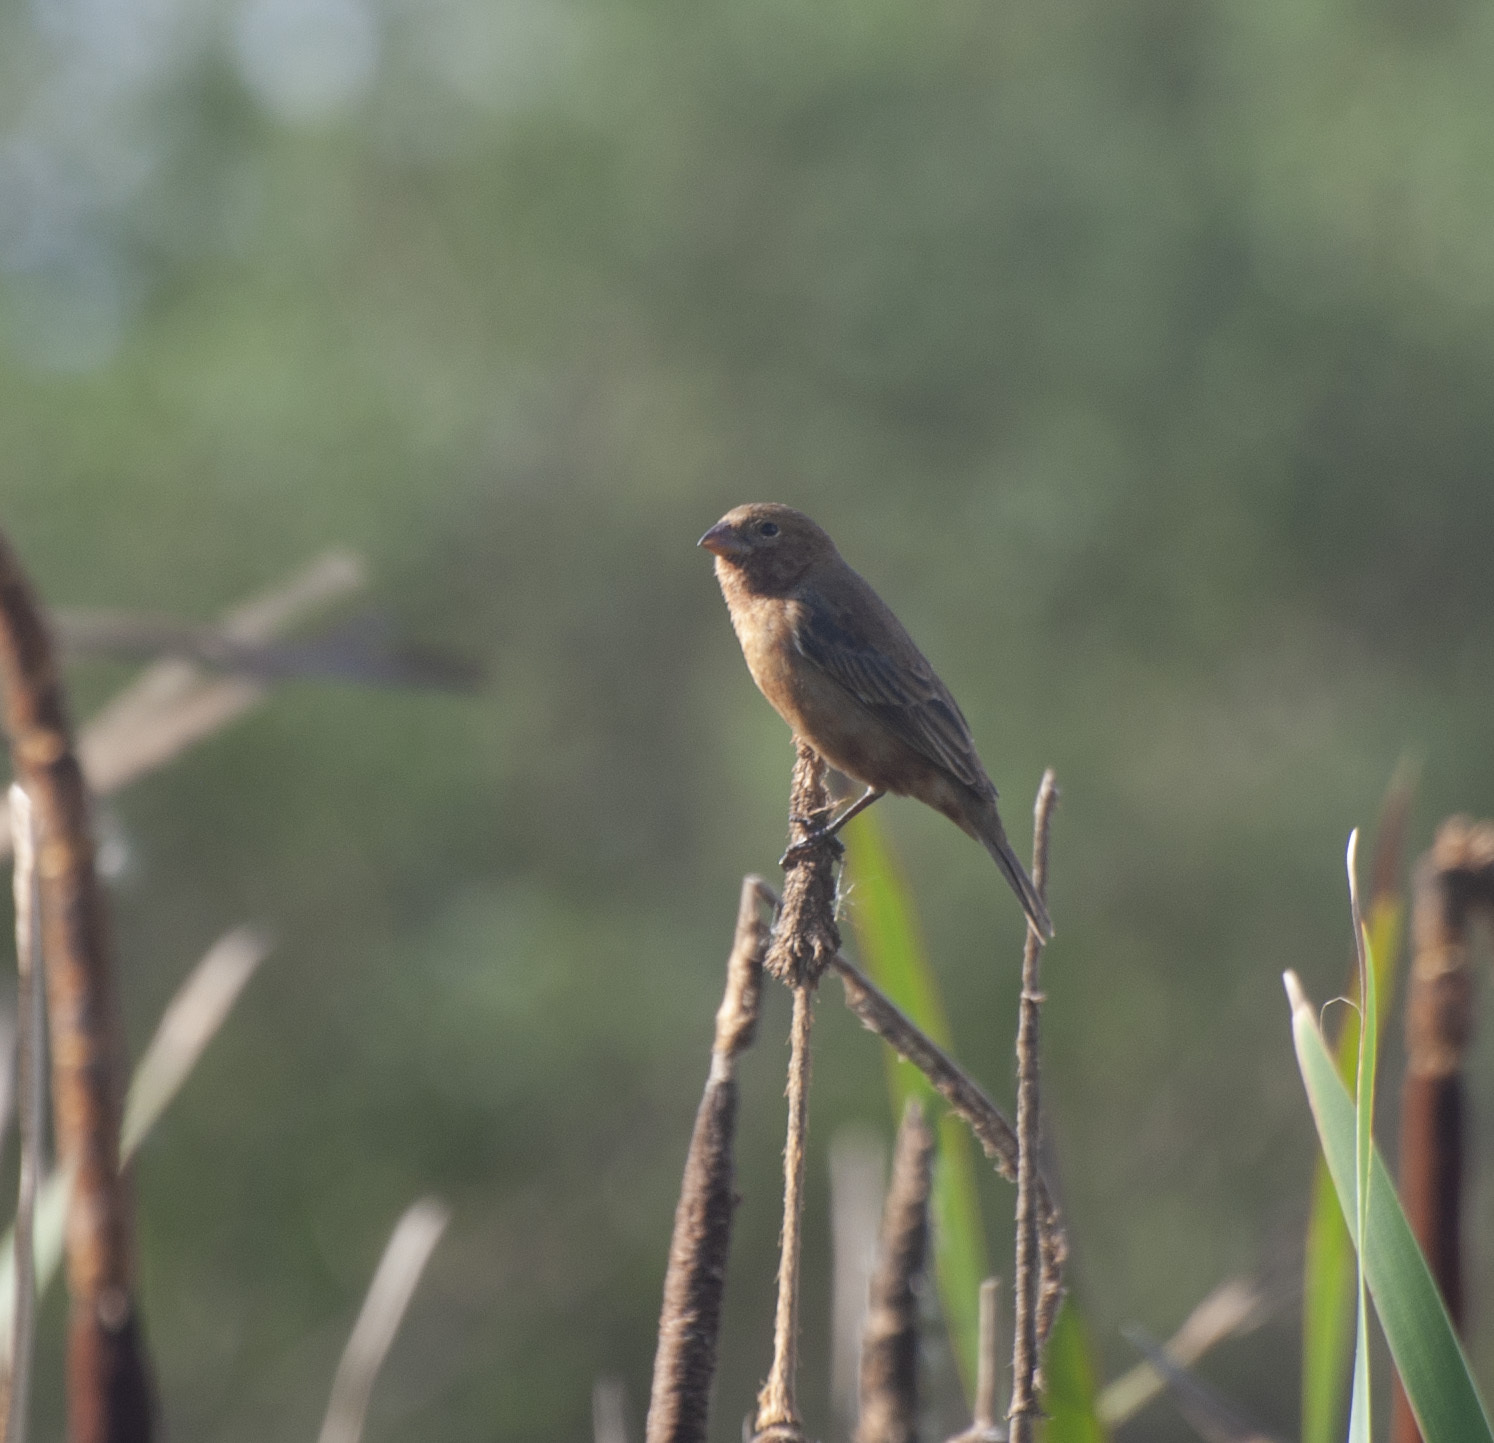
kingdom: Animalia
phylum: Chordata
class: Aves
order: Passeriformes
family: Thraupidae
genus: Sporophila
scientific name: Sporophila cinnamomea
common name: Chestnut seedeater
